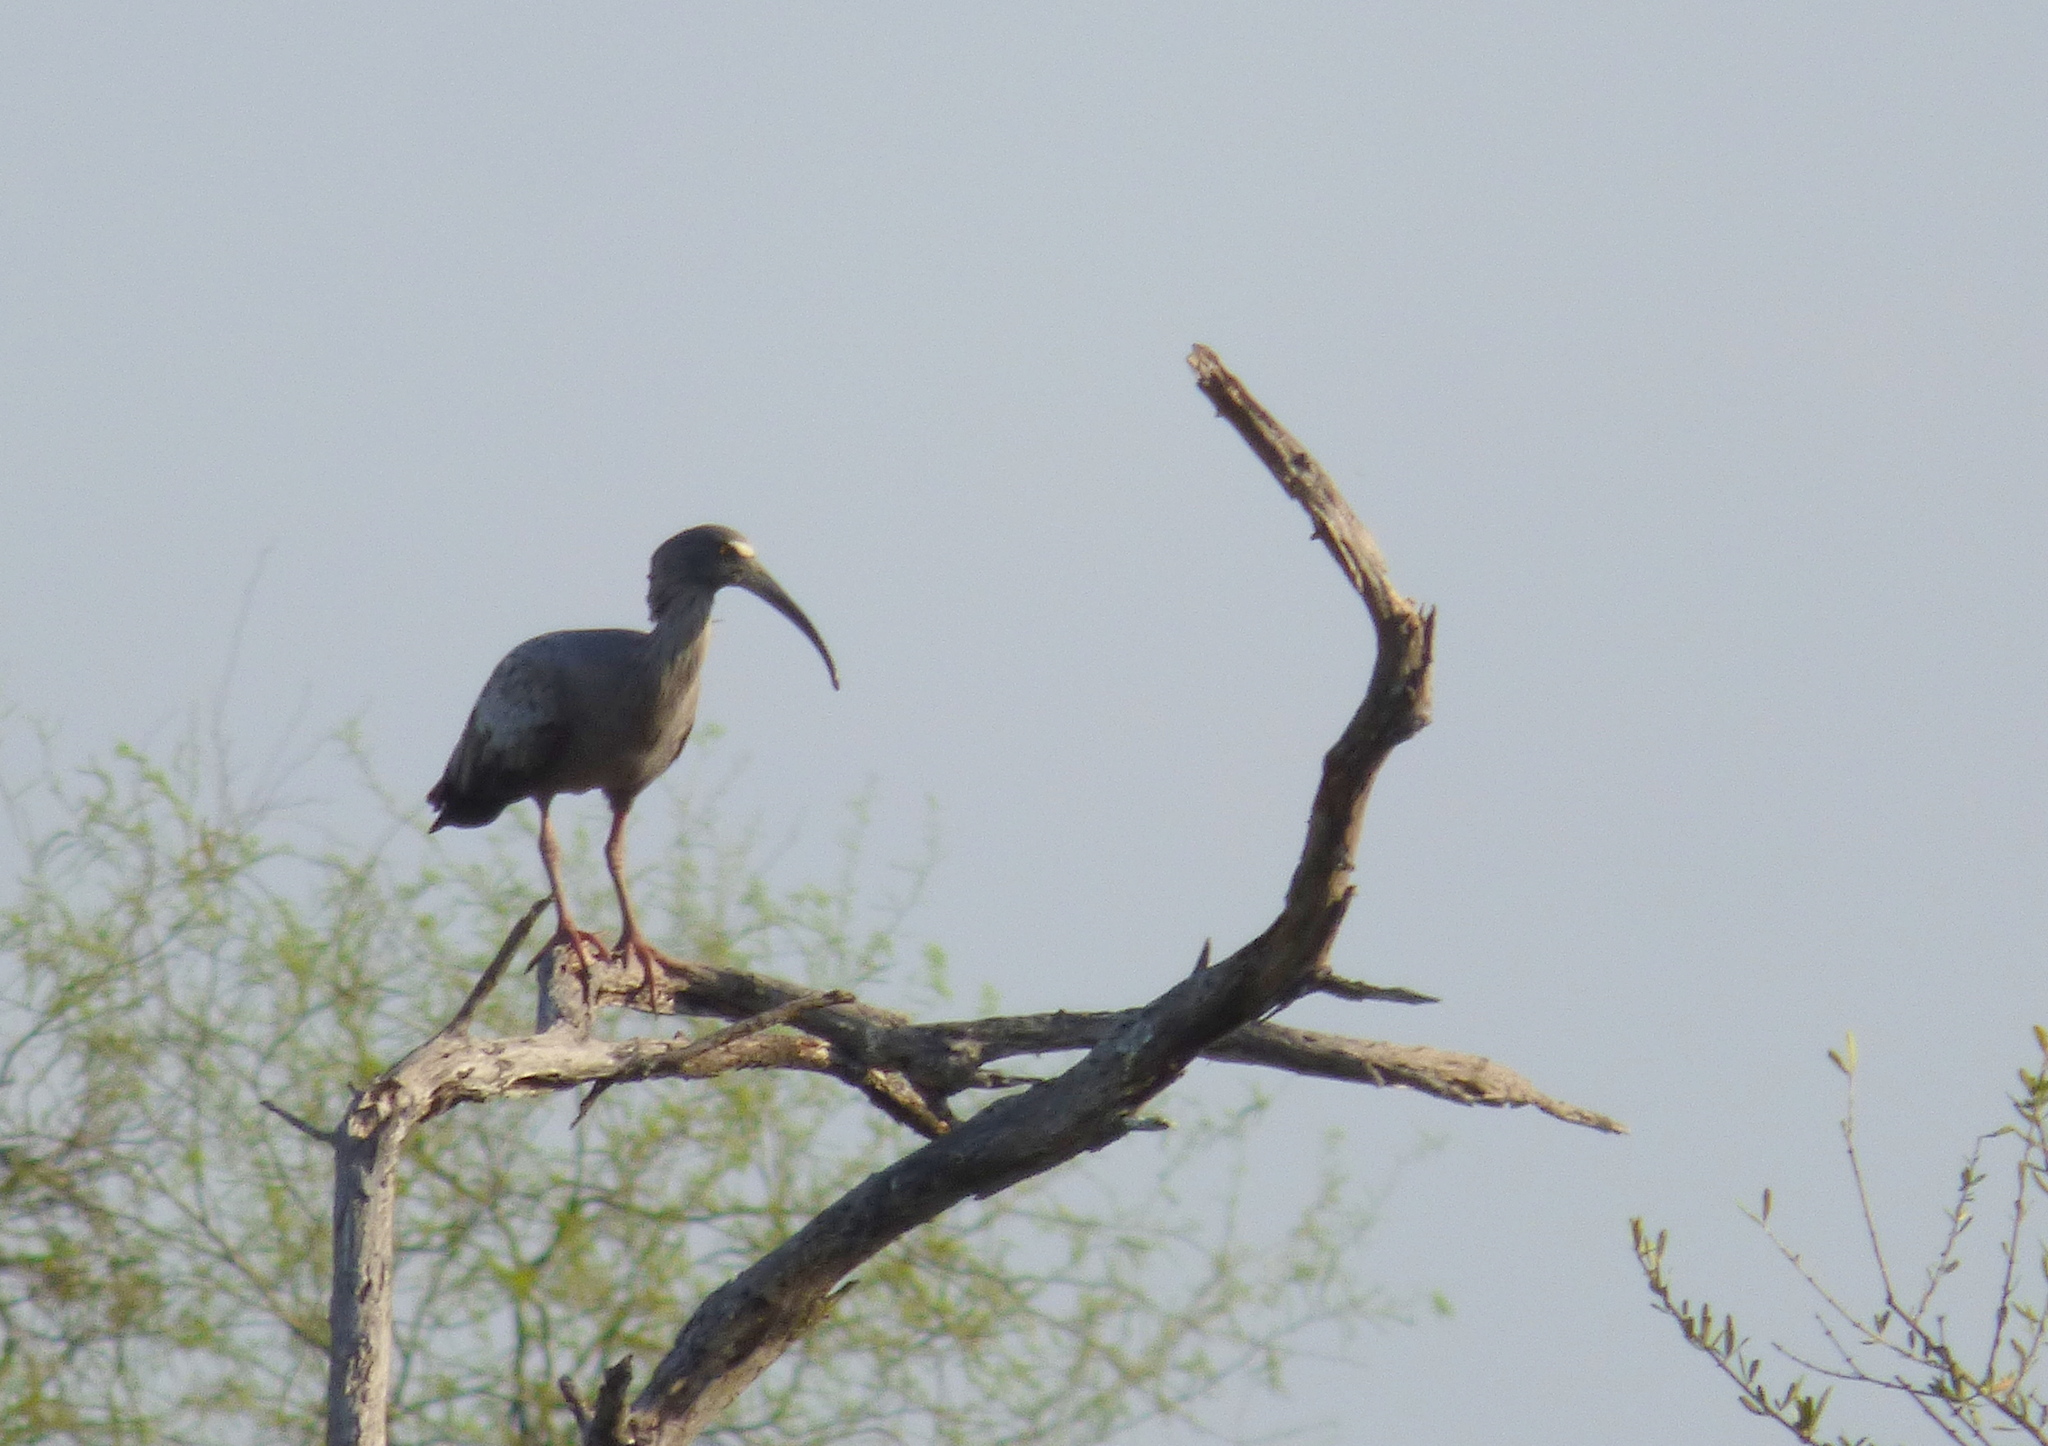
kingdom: Animalia
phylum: Chordata
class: Aves
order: Pelecaniformes
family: Threskiornithidae
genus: Theristicus
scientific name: Theristicus caerulescens
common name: Plumbeous ibis
